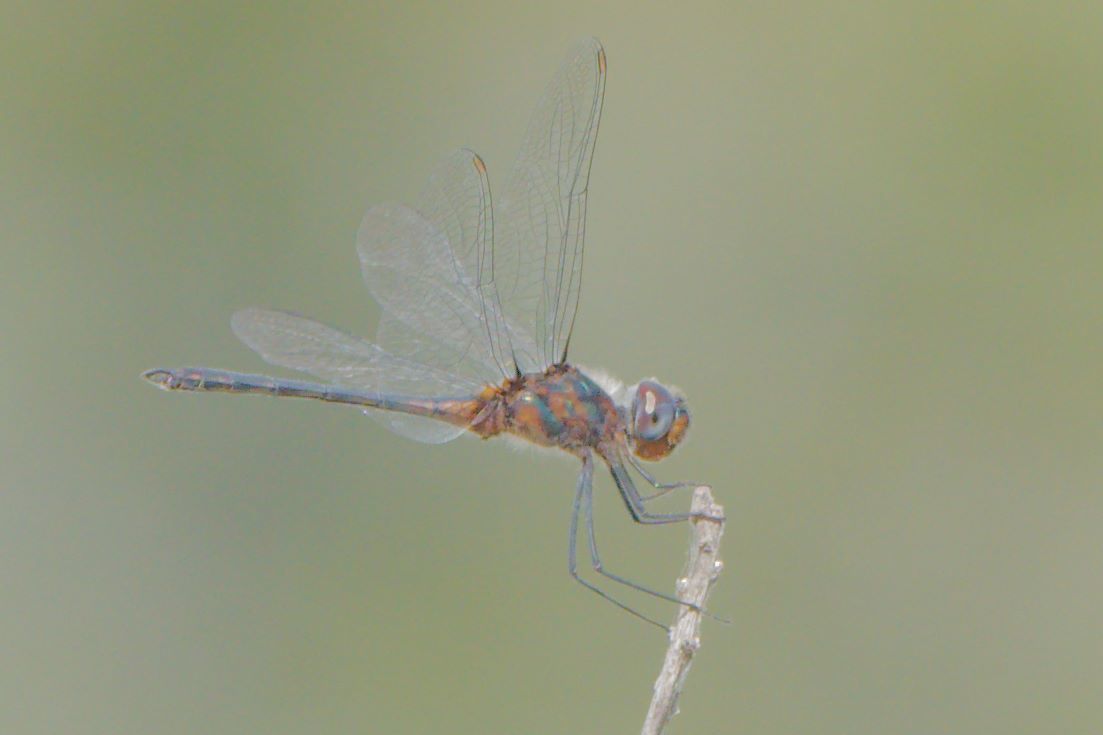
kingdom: Animalia
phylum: Arthropoda
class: Insecta
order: Odonata
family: Libellulidae
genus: Idiataphe
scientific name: Idiataphe cubensis
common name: Metallic pennant
